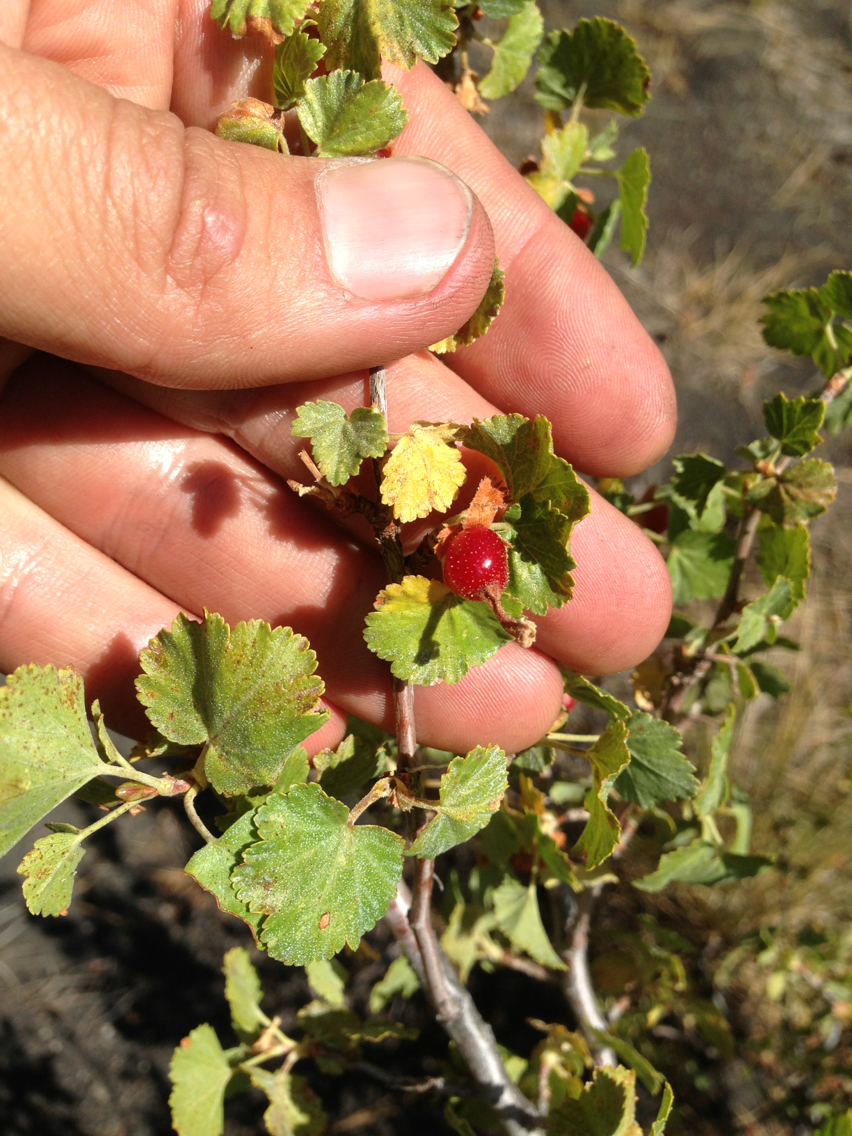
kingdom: Plantae
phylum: Tracheophyta
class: Magnoliopsida
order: Saxifragales
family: Grossulariaceae
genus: Ribes
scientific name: Ribes cereum
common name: Wax currant
